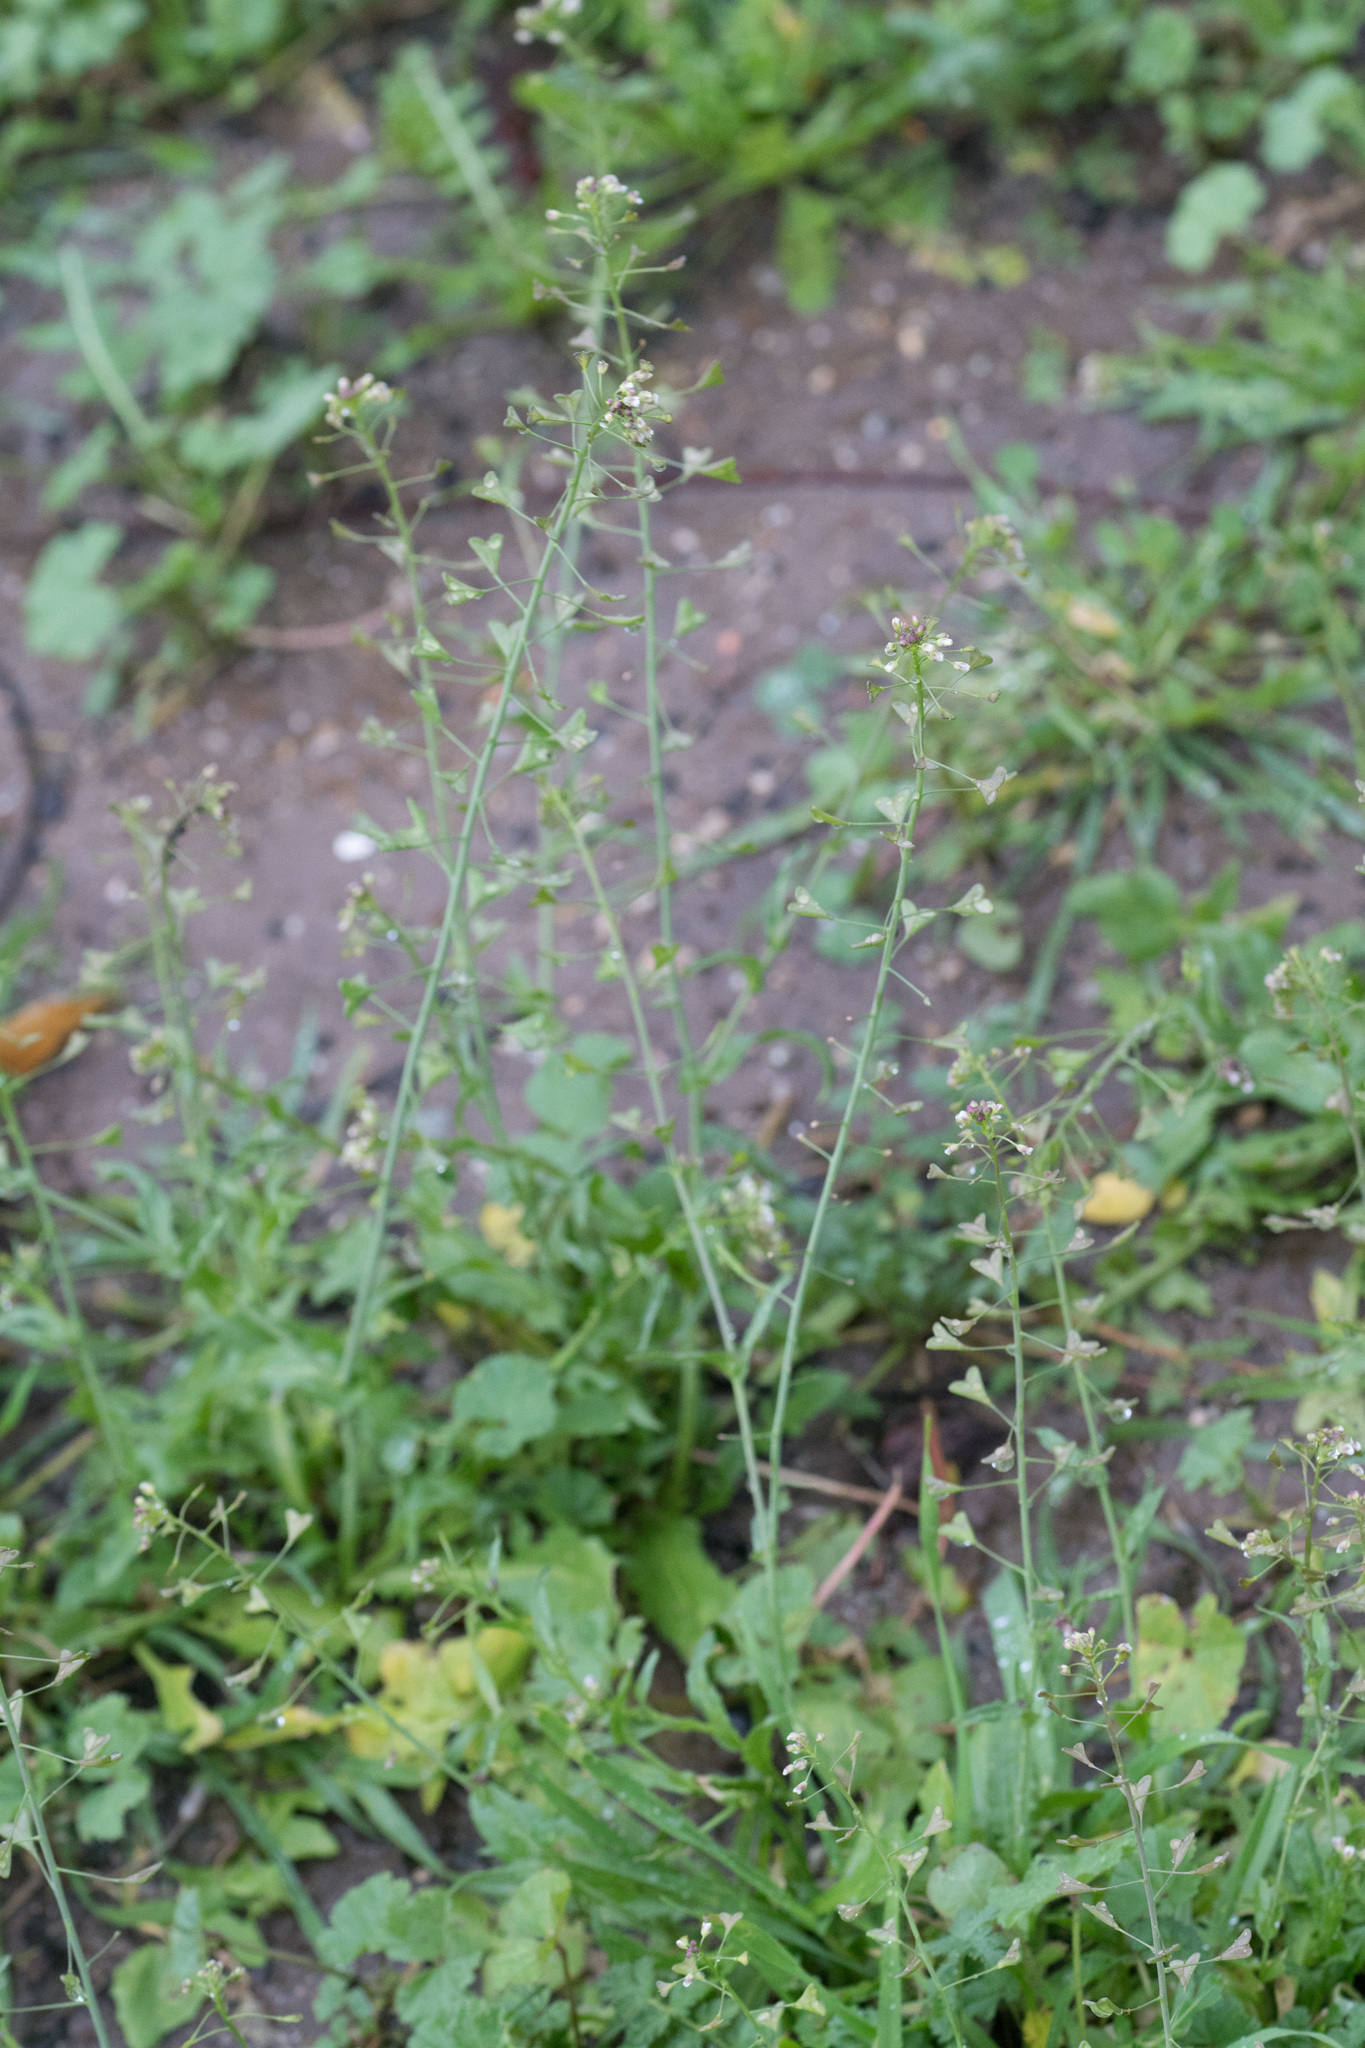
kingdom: Plantae
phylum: Tracheophyta
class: Magnoliopsida
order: Brassicales
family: Brassicaceae
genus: Capsella
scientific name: Capsella bursa-pastoris
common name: Shepherd's purse
